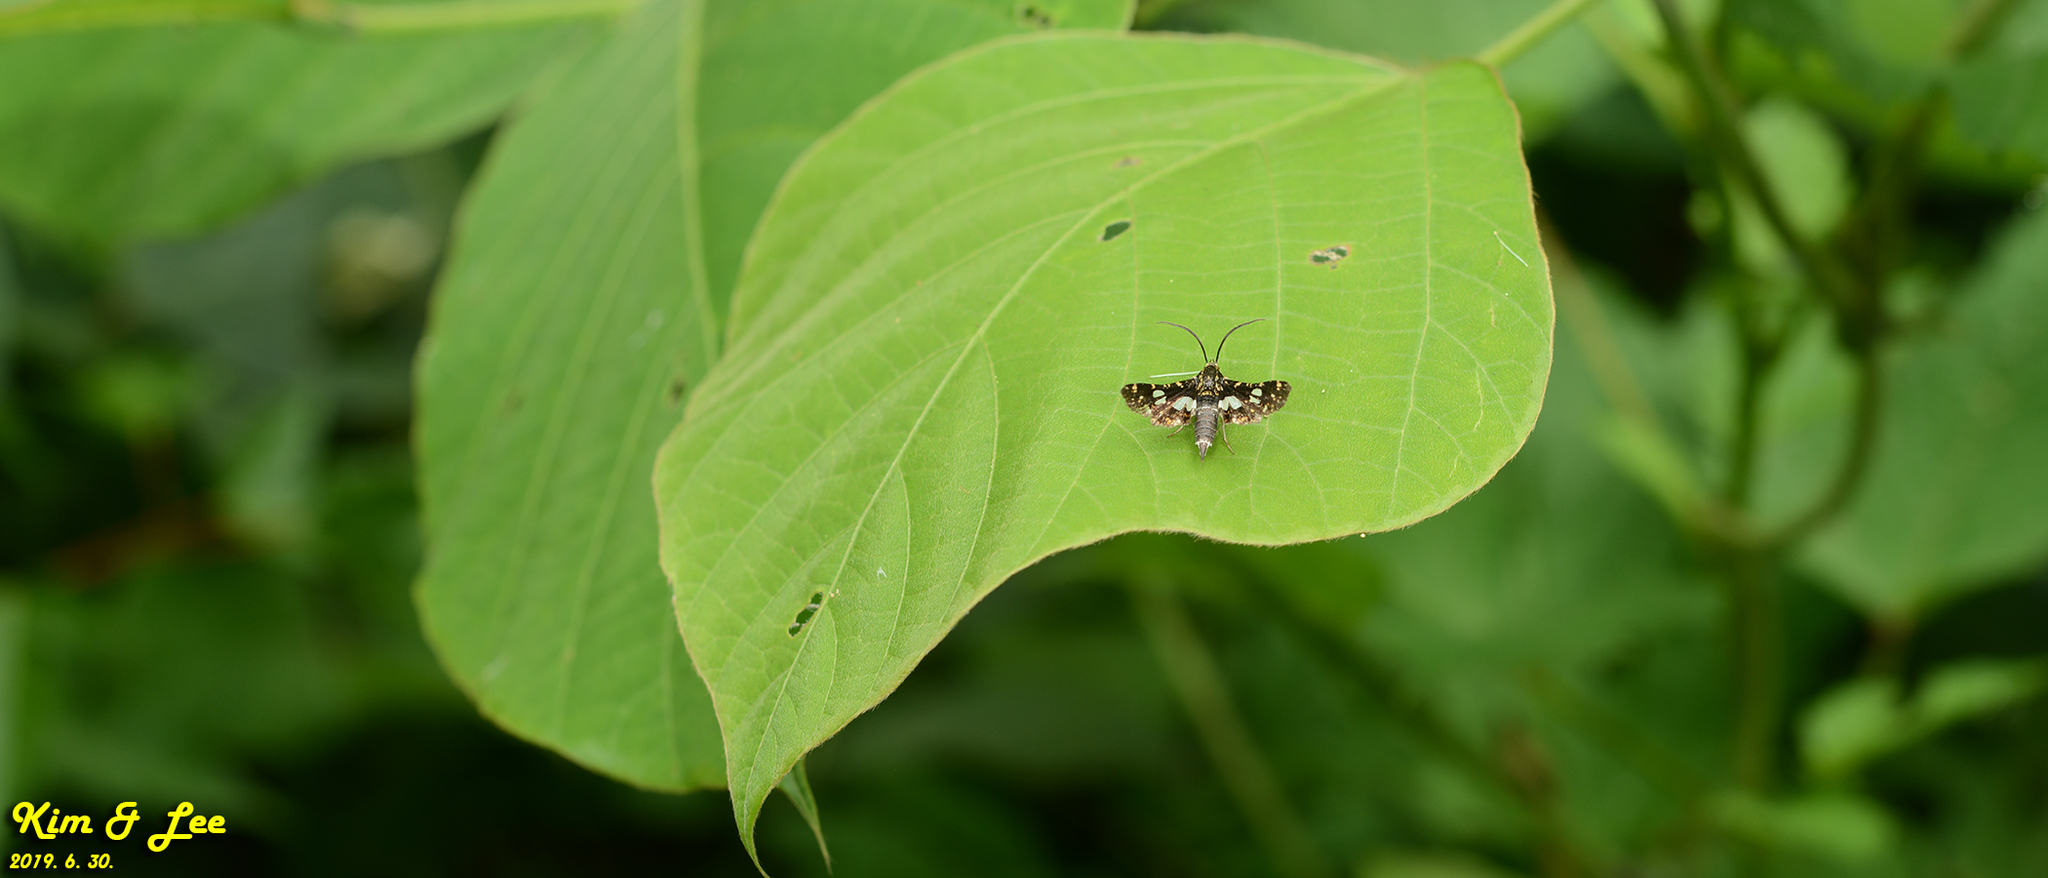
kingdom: Animalia
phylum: Arthropoda
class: Insecta
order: Lepidoptera
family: Thyrididae
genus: Thyris
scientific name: Thyris fenestrella
